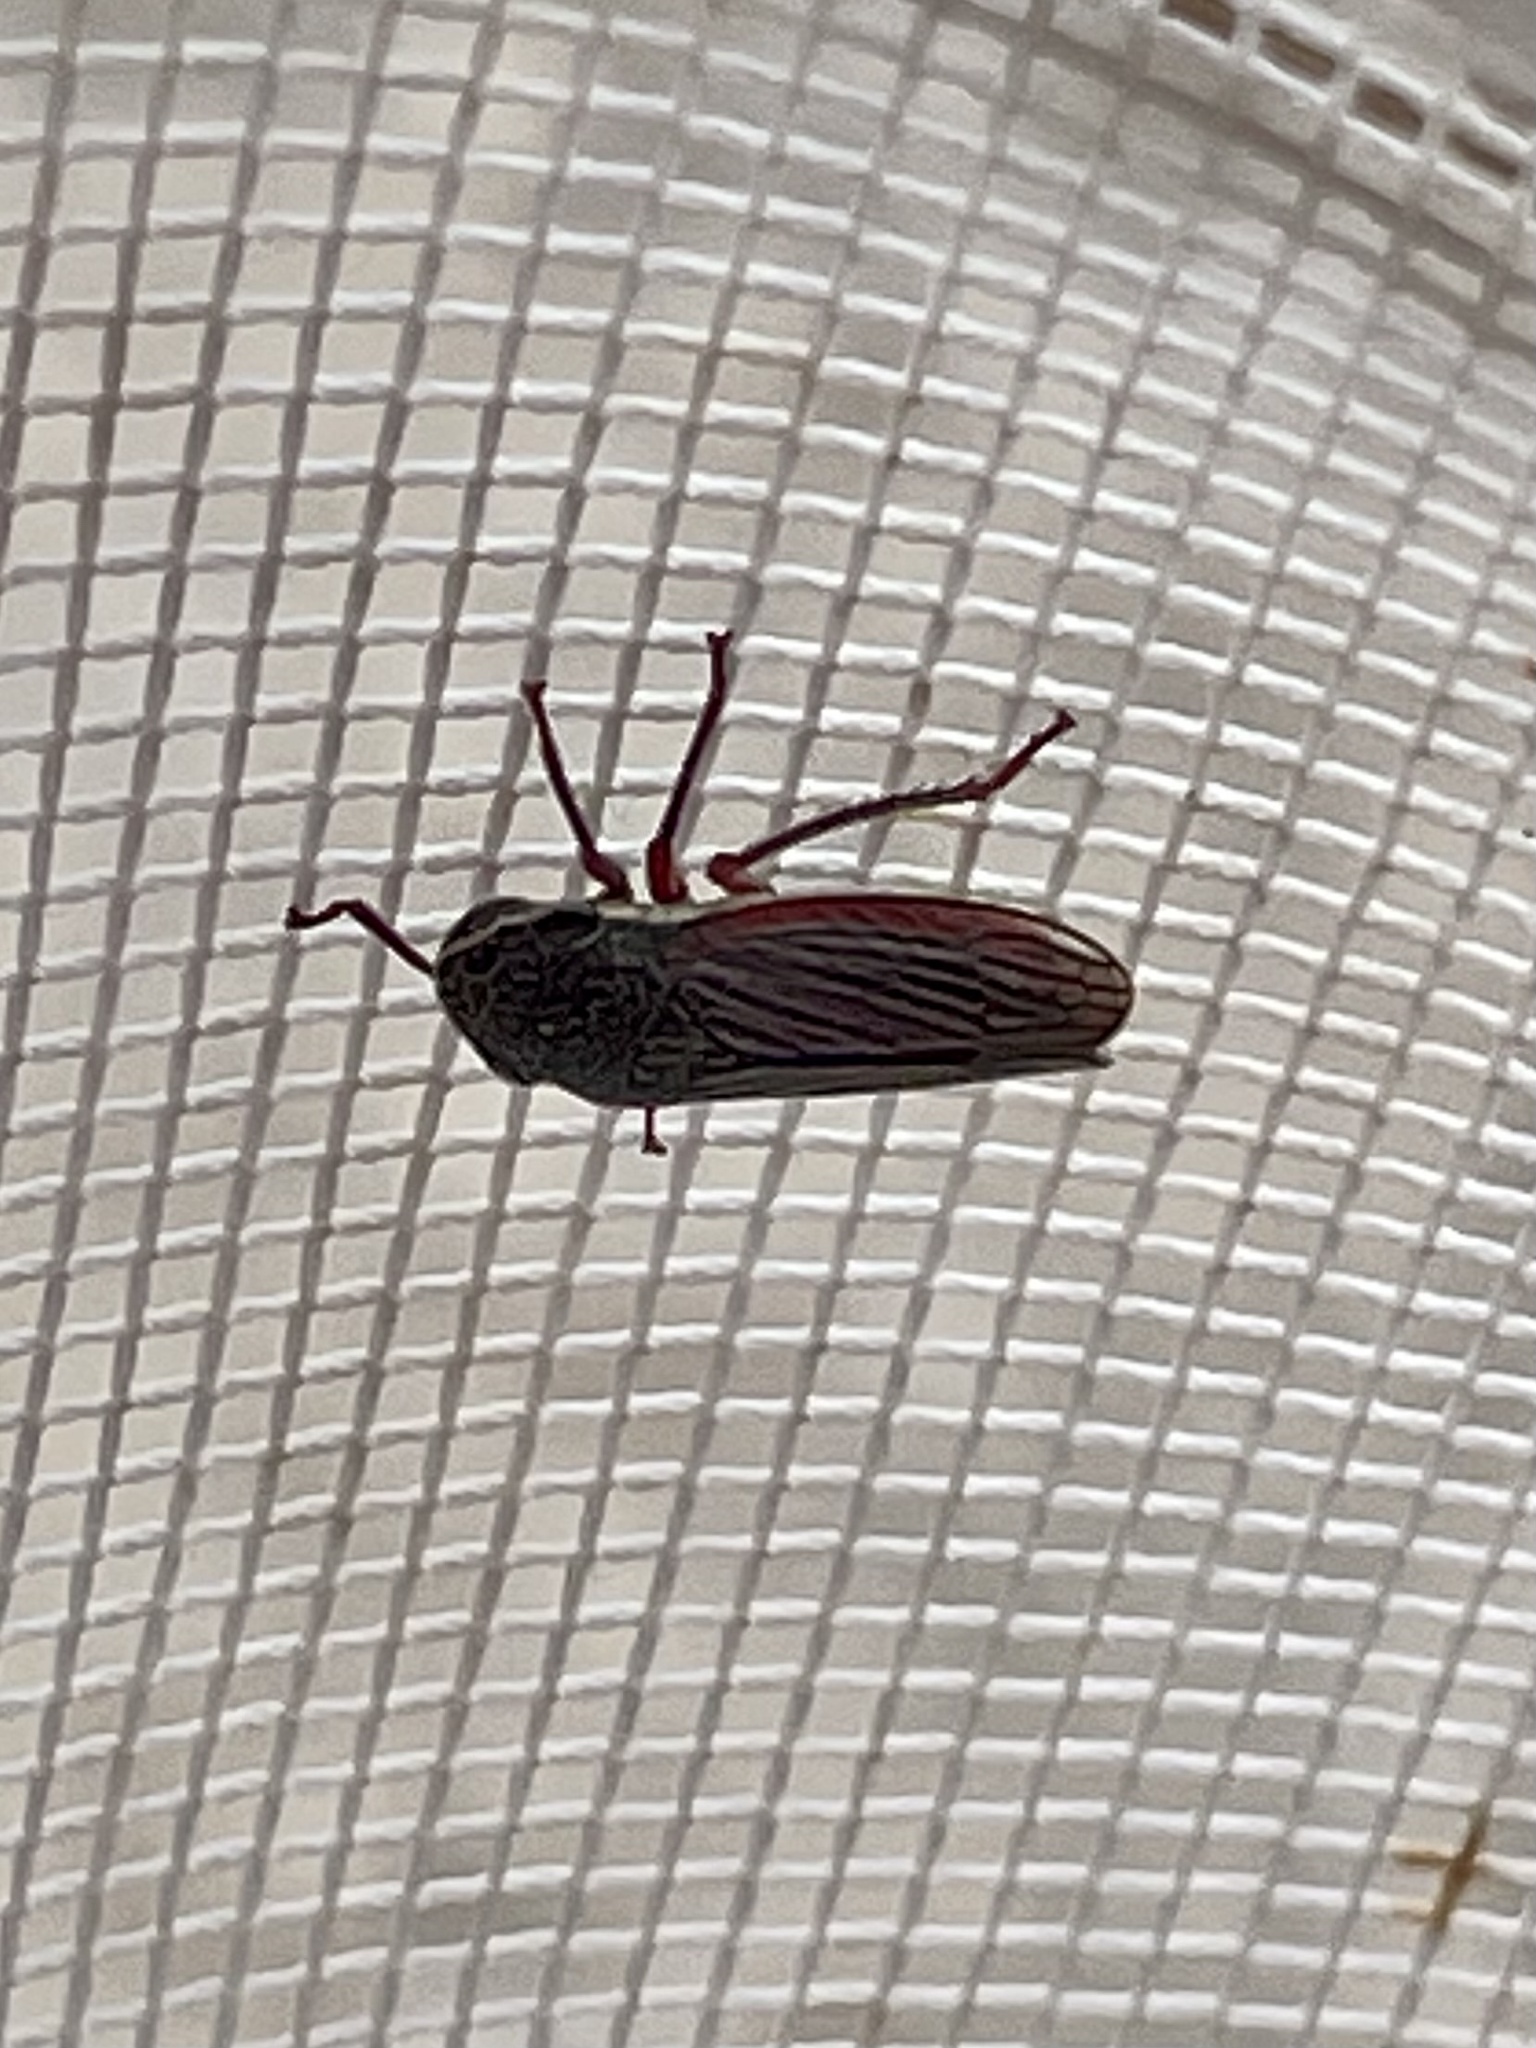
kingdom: Animalia
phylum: Arthropoda
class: Insecta
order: Hemiptera
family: Cicadellidae
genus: Cuerna
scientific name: Cuerna costalis
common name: Lateral-lined sharpshooter
